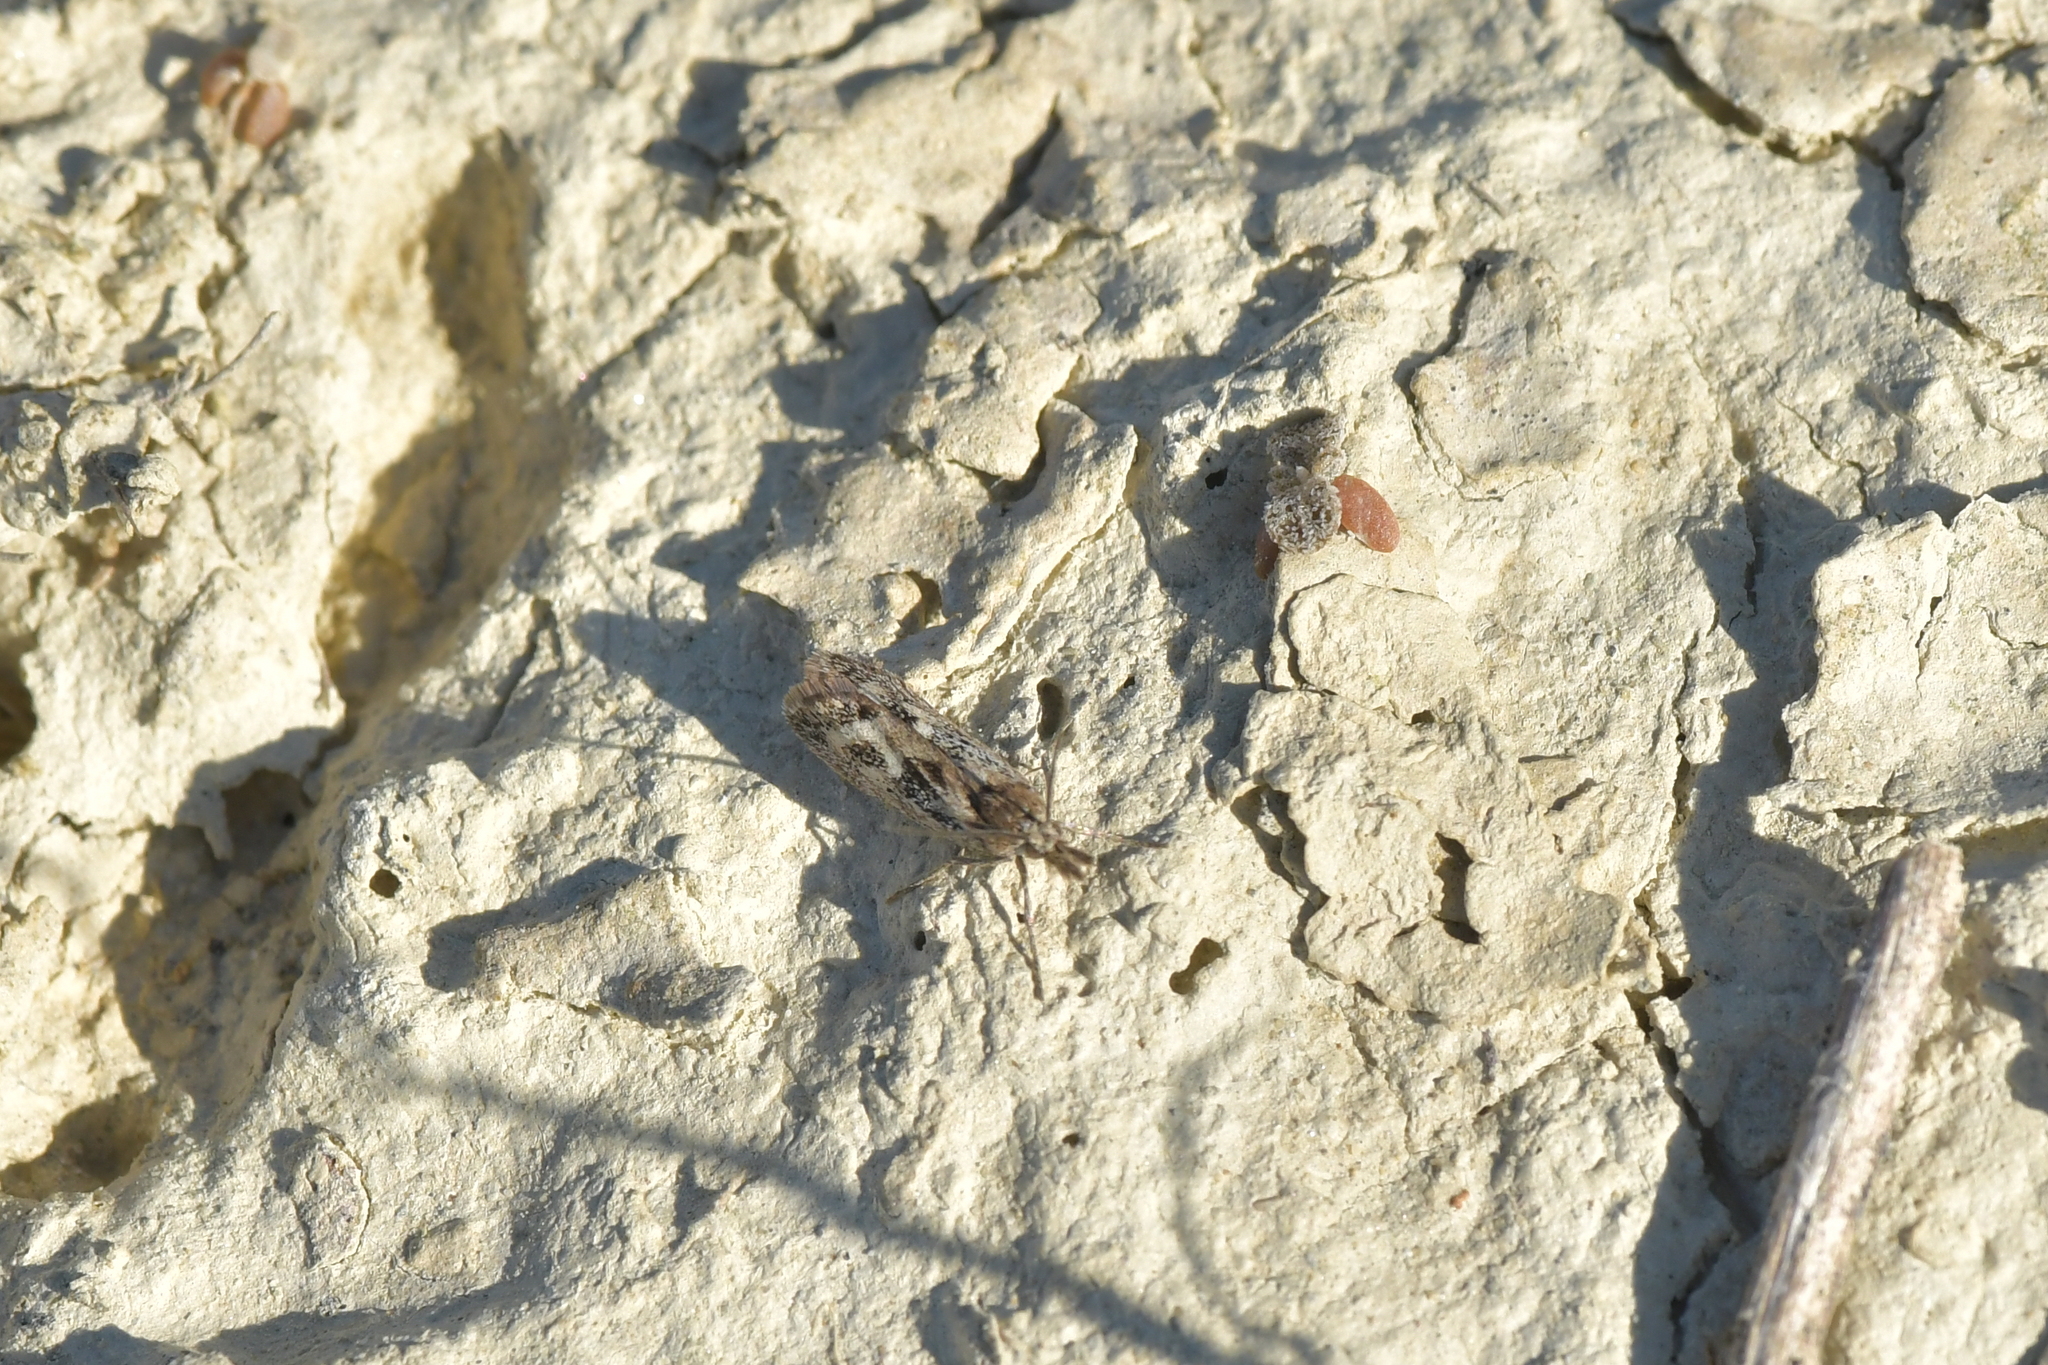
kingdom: Animalia
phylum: Arthropoda
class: Insecta
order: Lepidoptera
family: Crambidae
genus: Orocrambus
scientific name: Orocrambus corruptus
